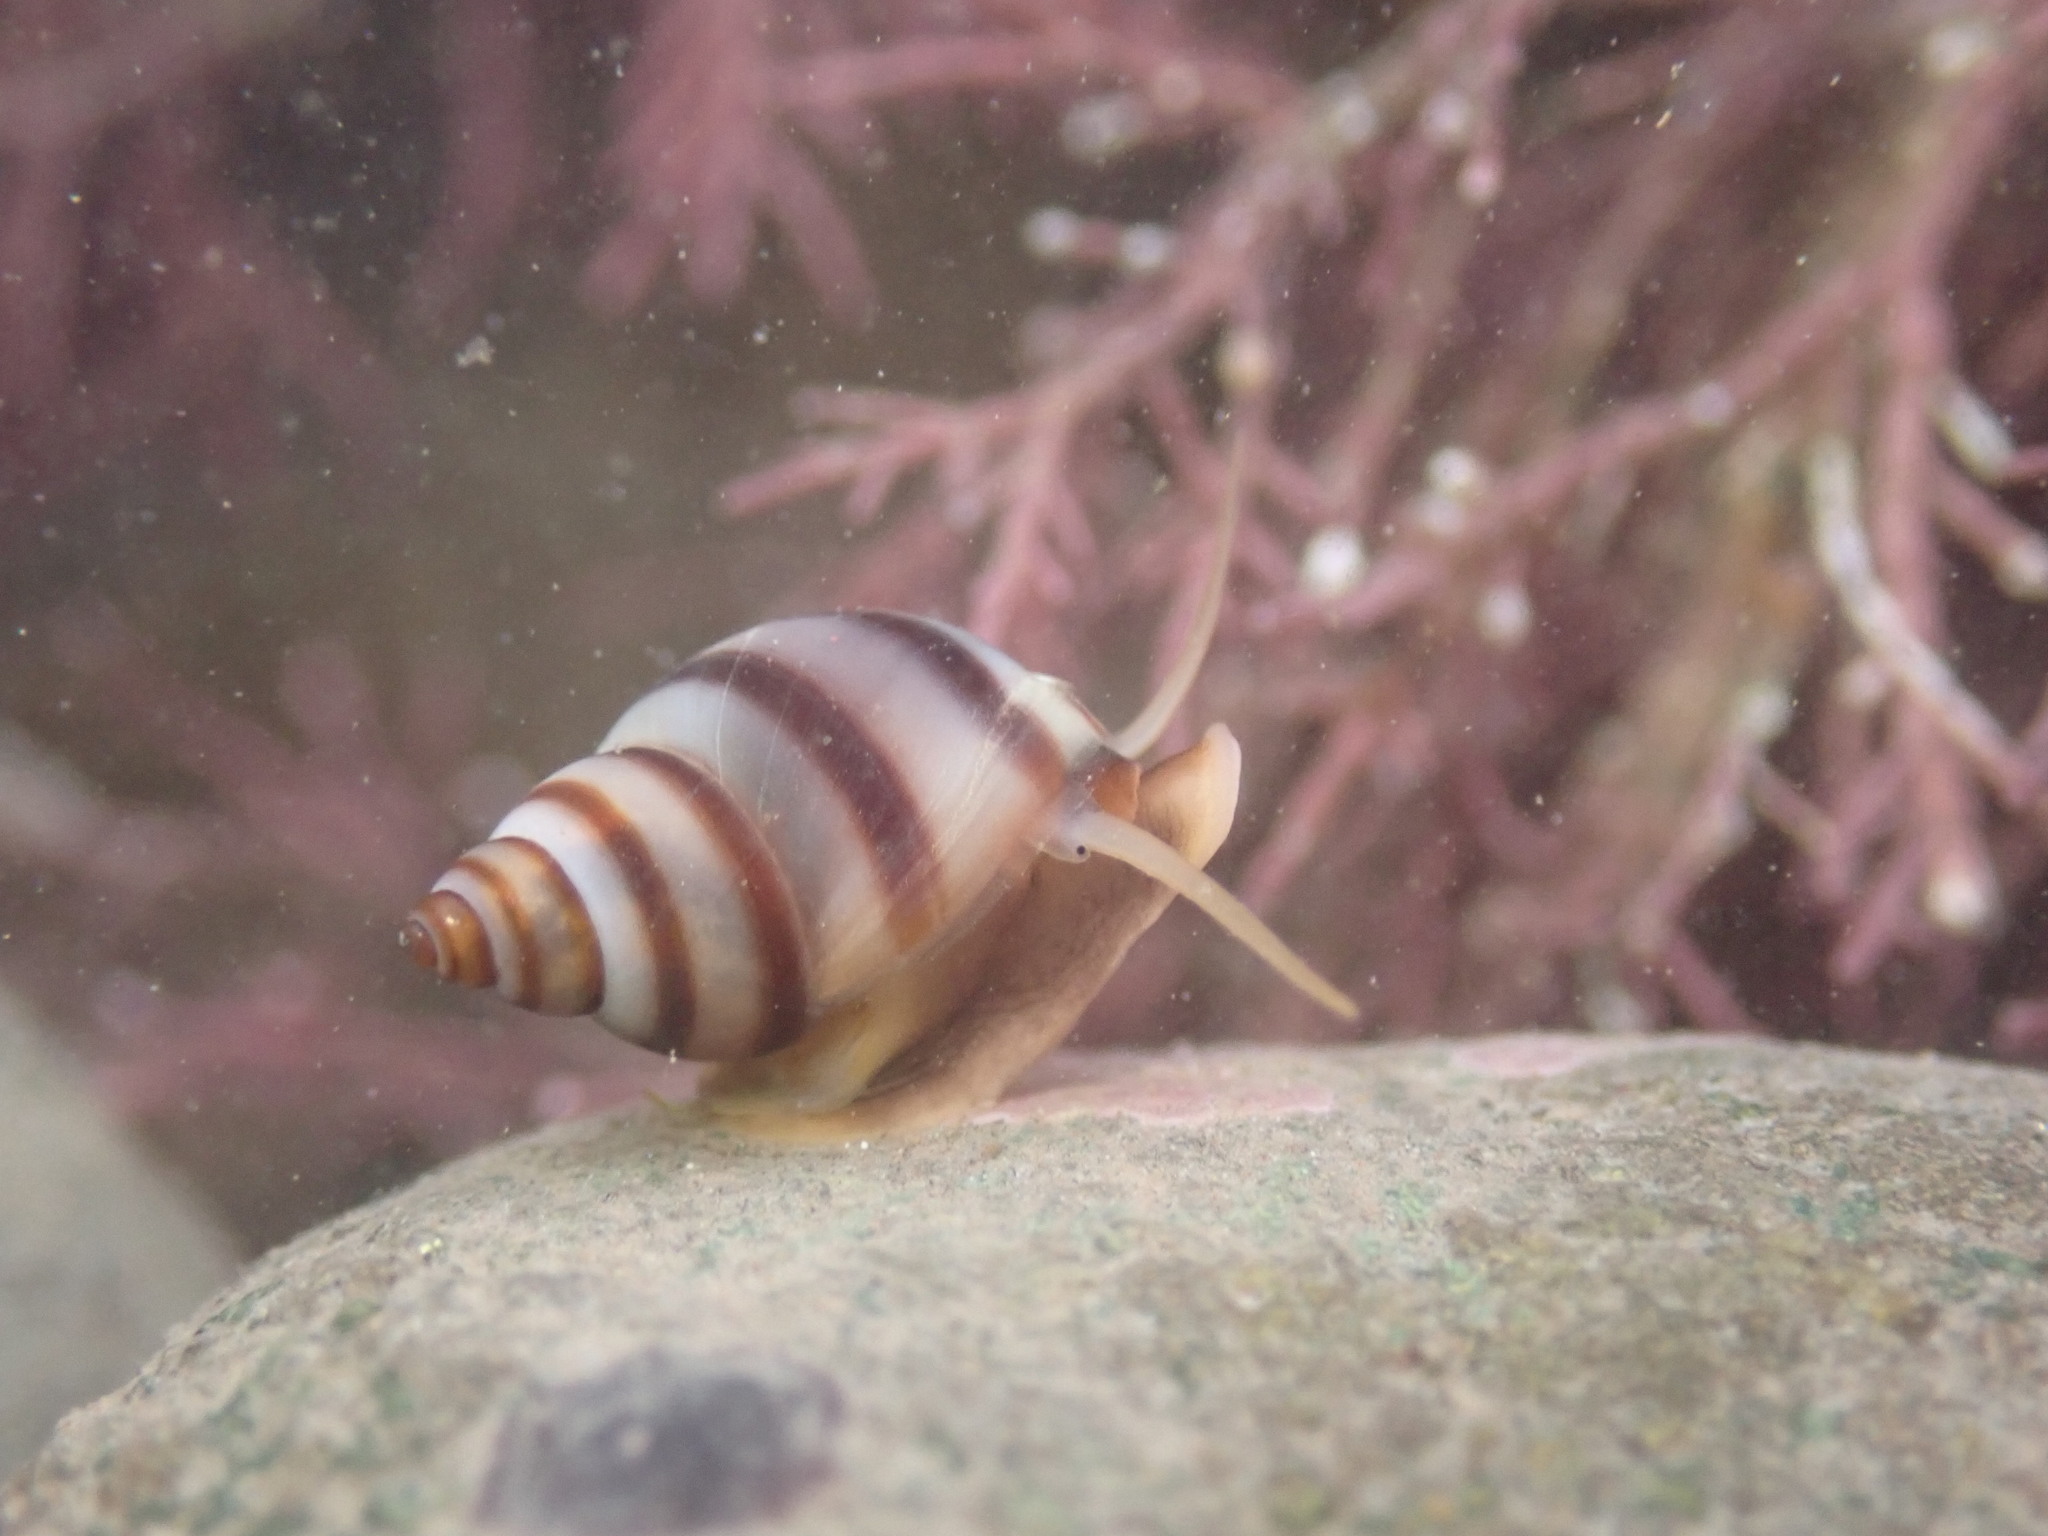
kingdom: Animalia
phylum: Mollusca
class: Gastropoda
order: Littorinimorpha
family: Littorinidae
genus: Lacuna
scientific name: Lacuna vincta
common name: Banded chink shell
